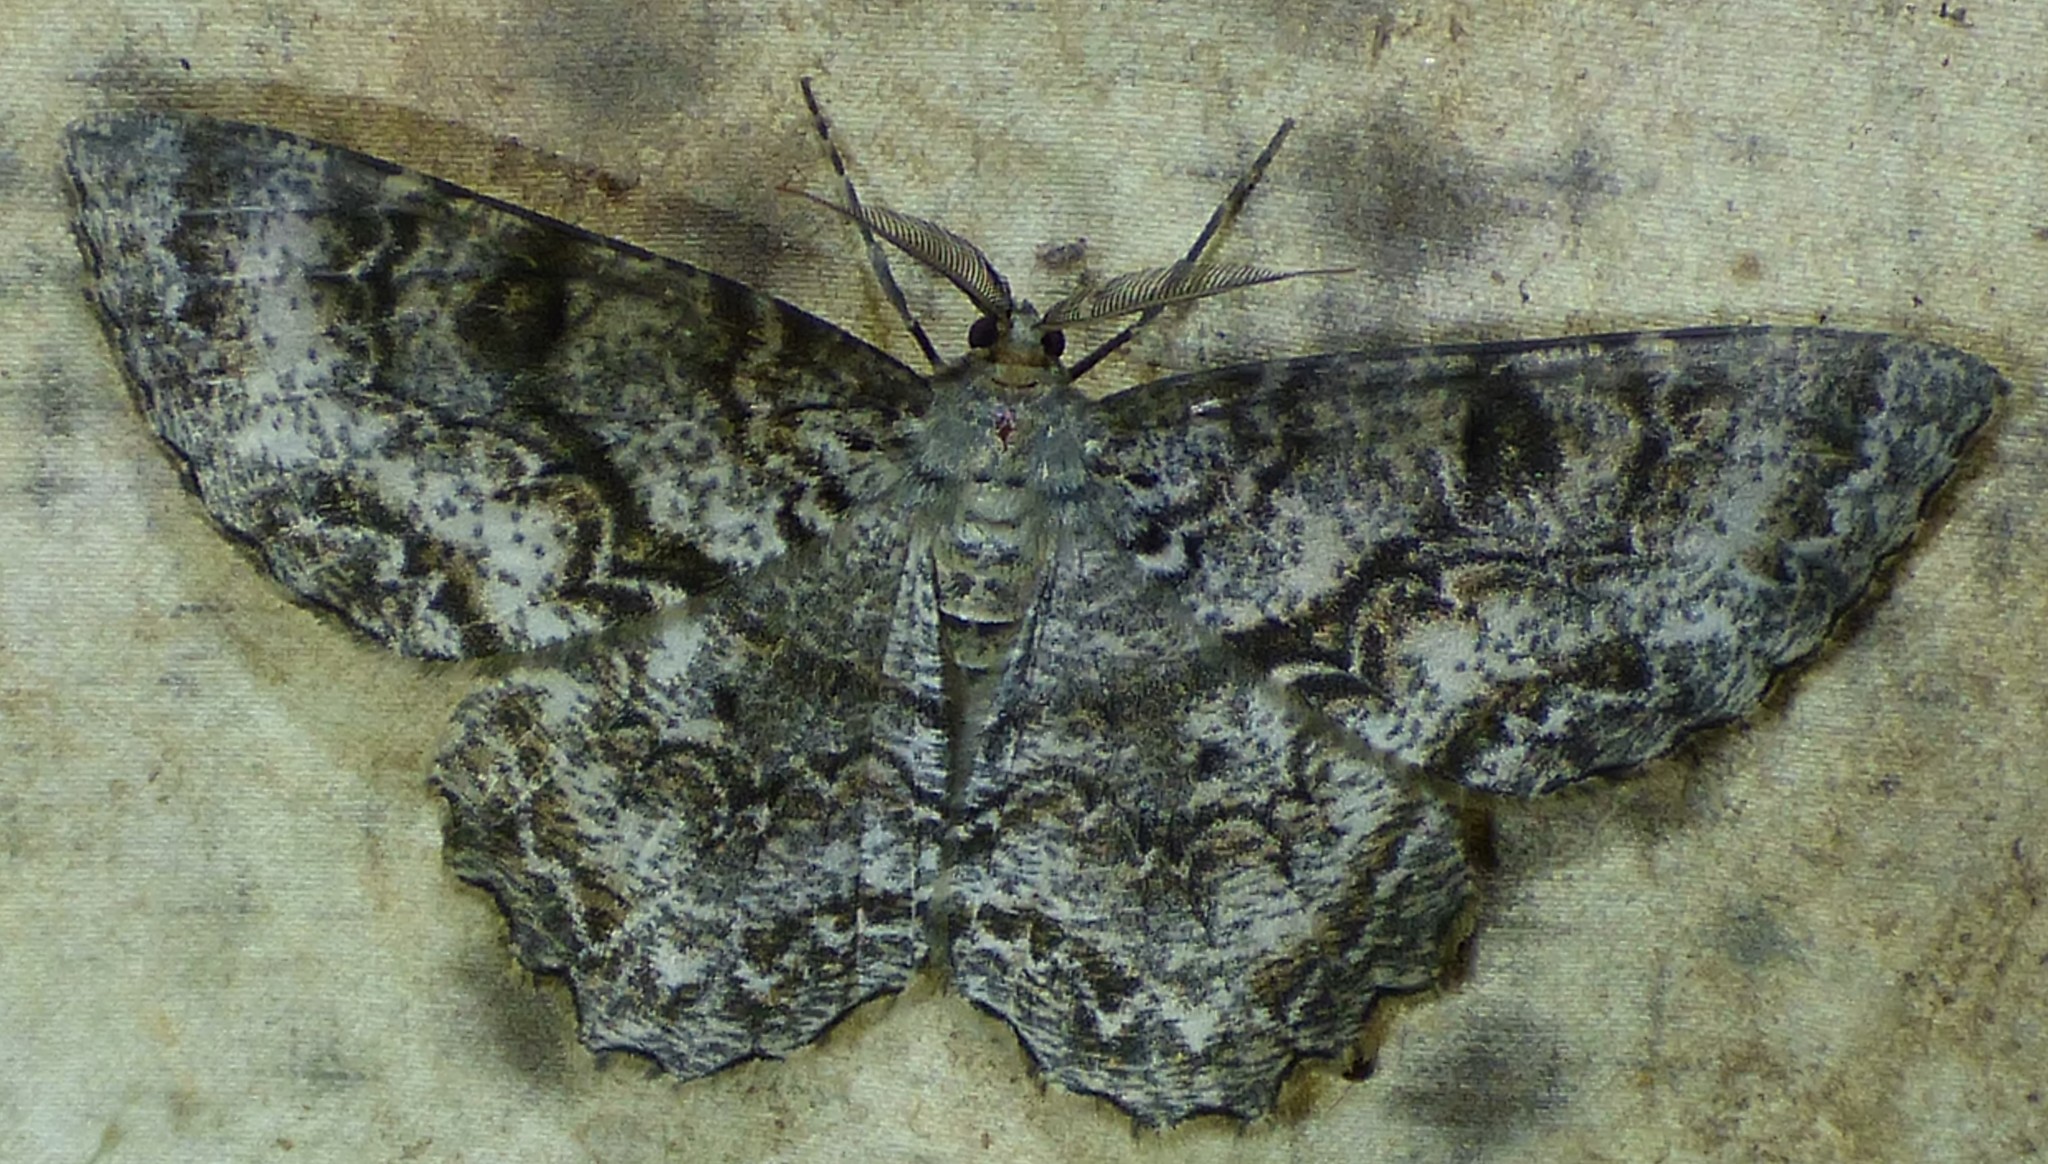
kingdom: Animalia
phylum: Arthropoda
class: Insecta
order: Lepidoptera
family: Geometridae
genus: Epimecis
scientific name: Epimecis hortaria
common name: Tulip-tree beauty
